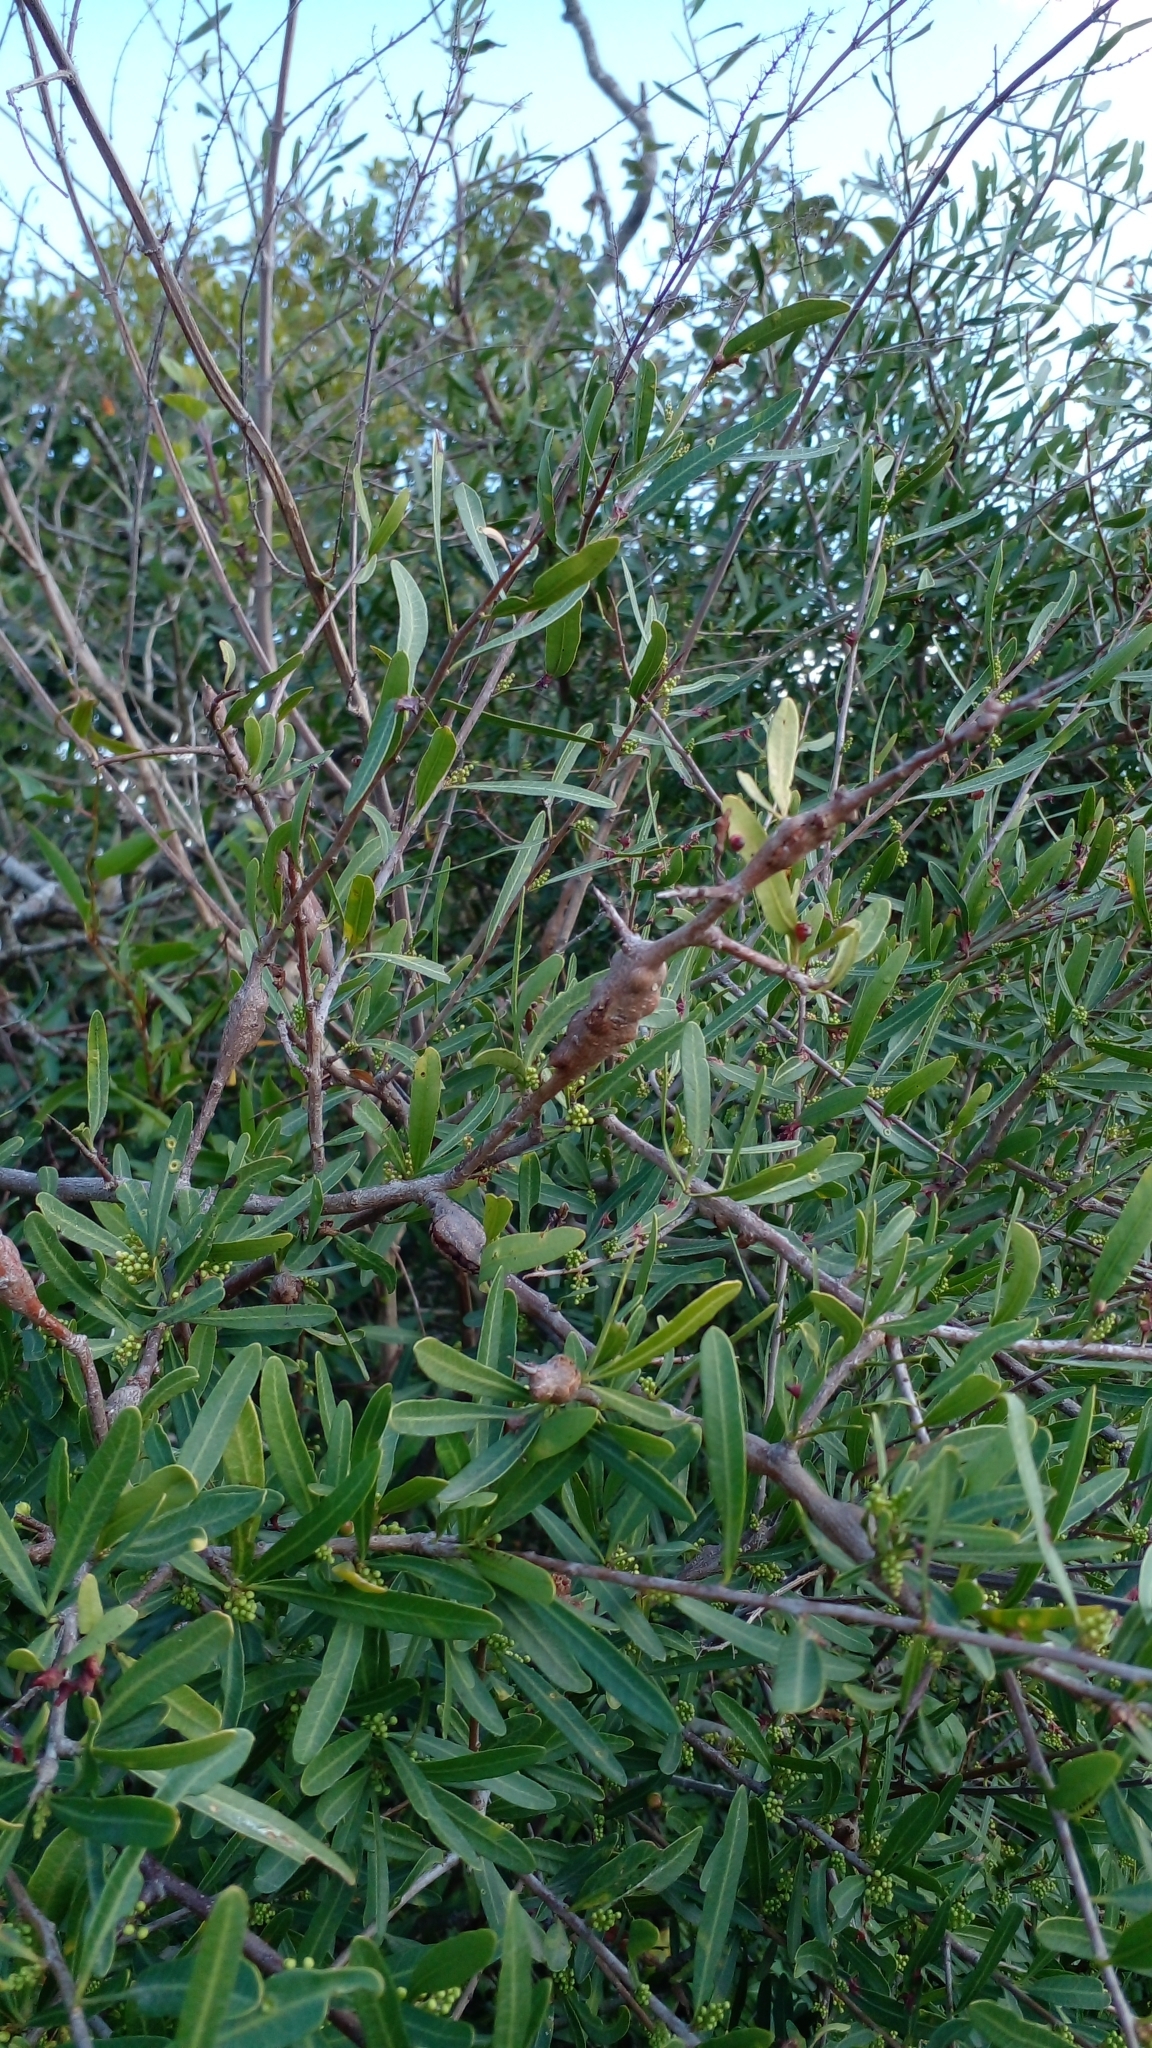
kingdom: Plantae
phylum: Tracheophyta
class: Magnoliopsida
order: Sapindales
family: Anacardiaceae
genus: Schinus
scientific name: Schinus longifolia
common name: Longleaf peppertree
